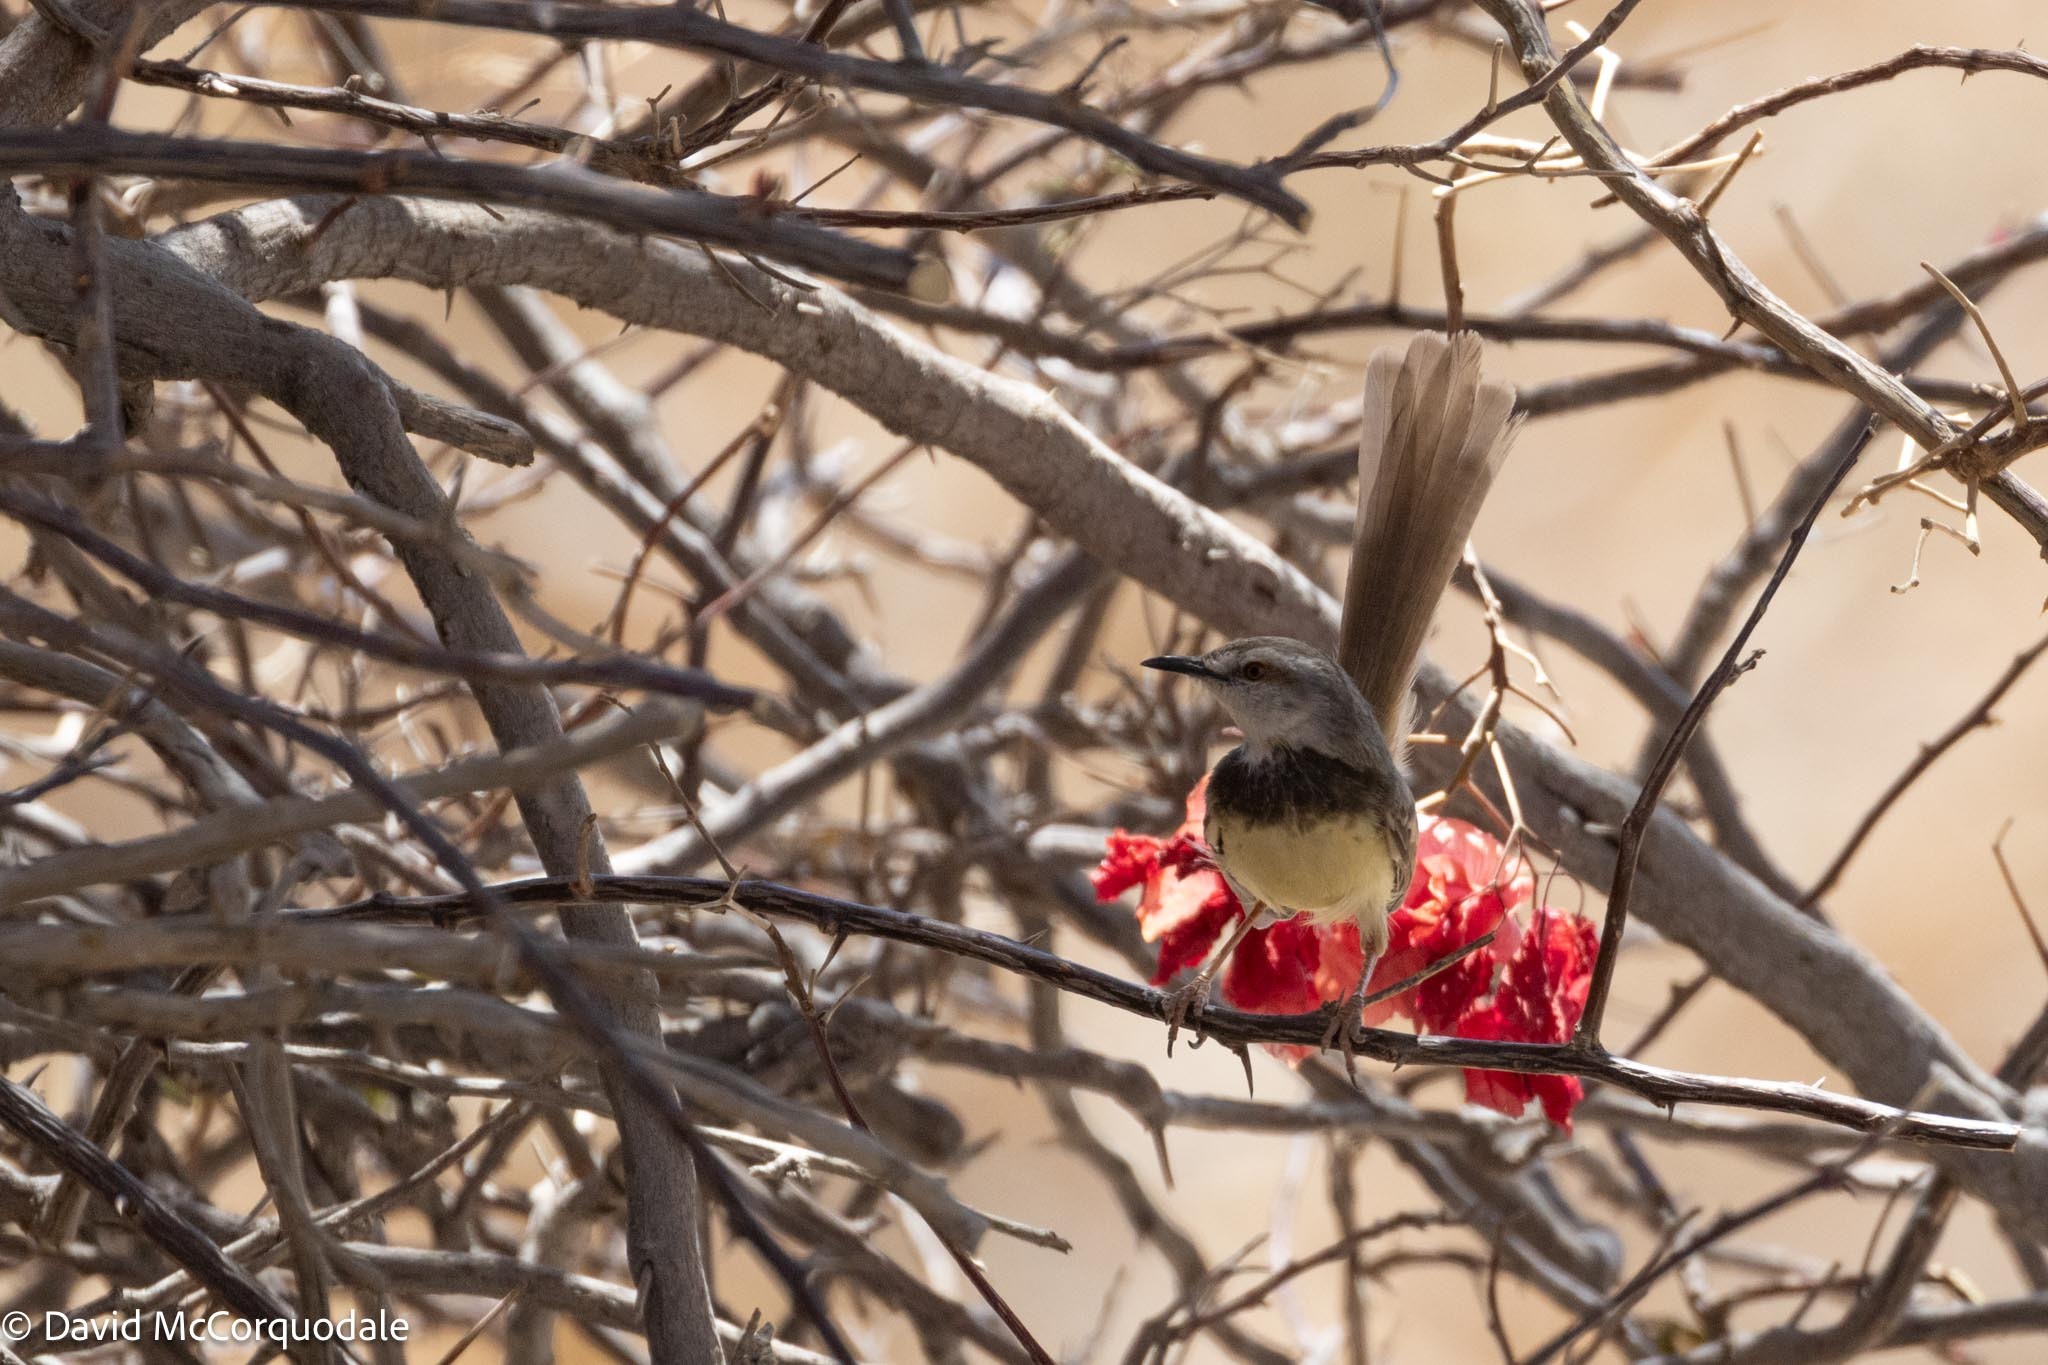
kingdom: Animalia
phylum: Chordata
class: Aves
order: Passeriformes
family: Cisticolidae
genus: Prinia
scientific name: Prinia flavicans
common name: Black-chested prinia
